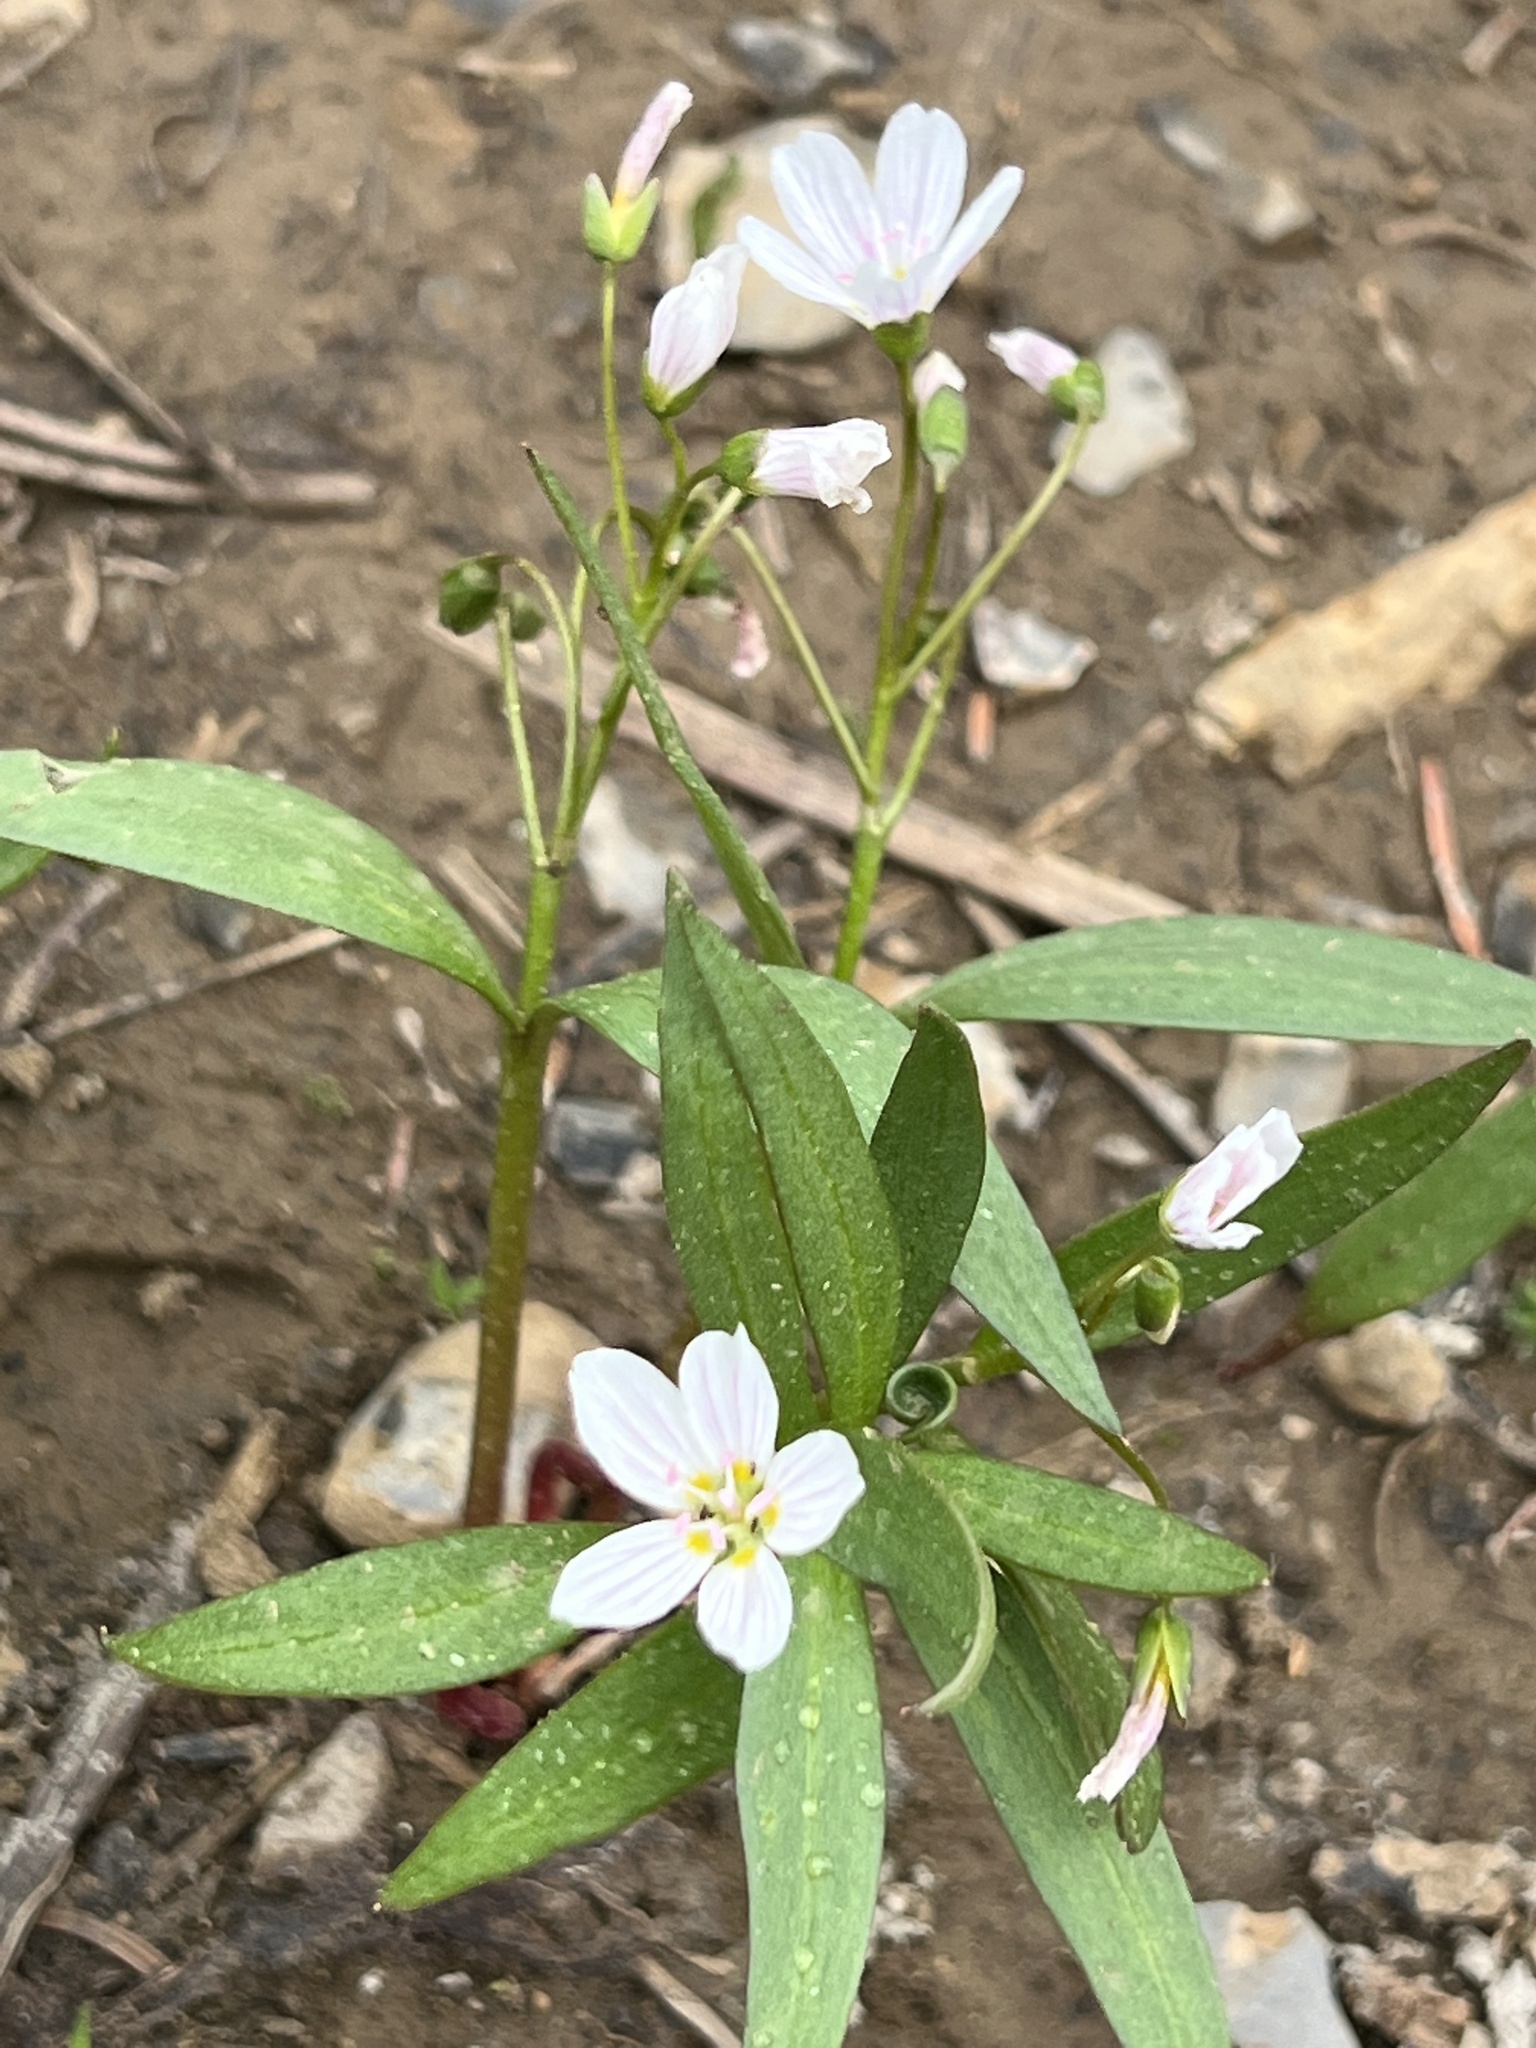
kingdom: Plantae
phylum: Tracheophyta
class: Magnoliopsida
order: Caryophyllales
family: Montiaceae
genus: Claytonia
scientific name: Claytonia lanceolata
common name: Western spring-beauty
